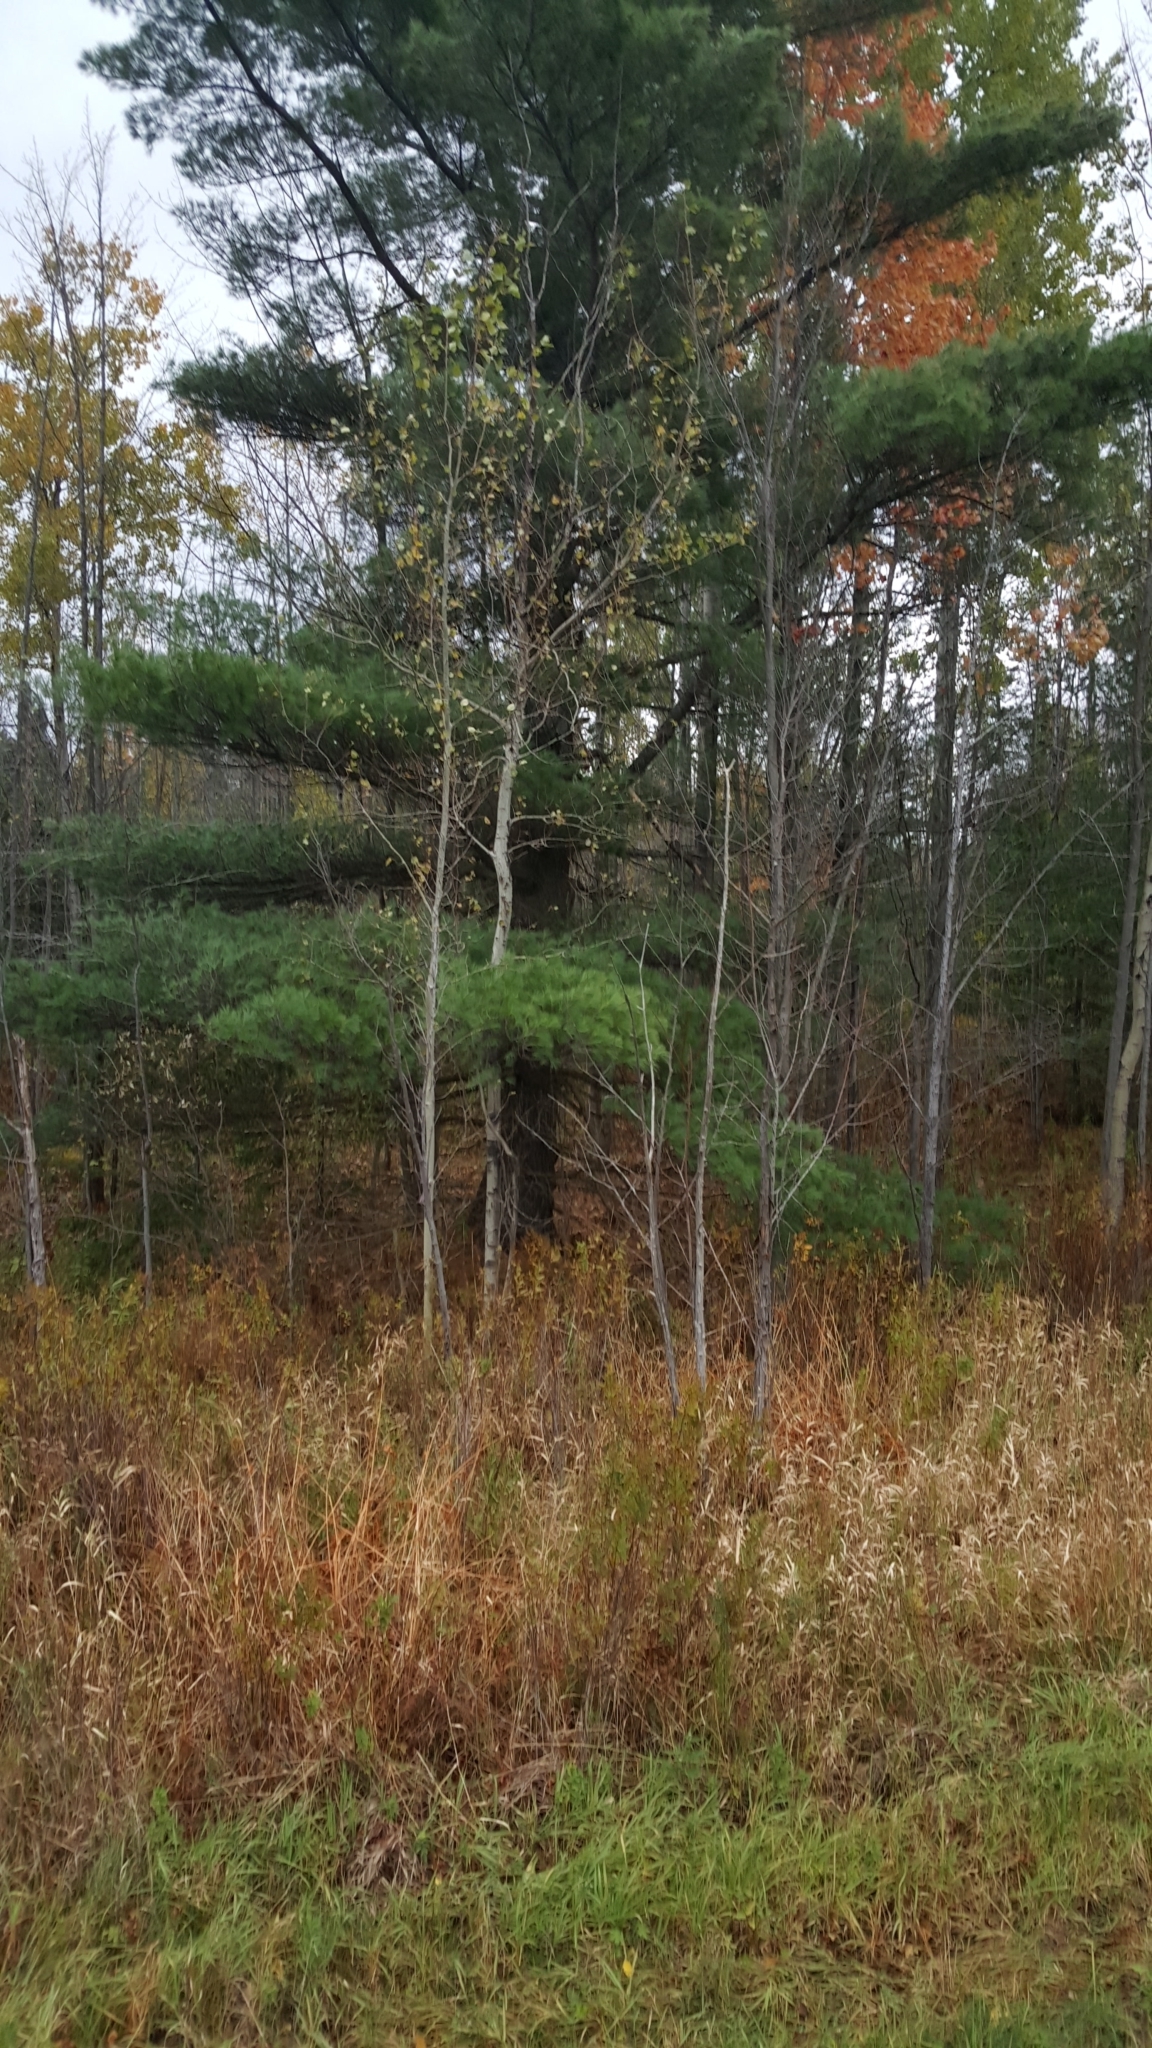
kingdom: Plantae
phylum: Tracheophyta
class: Pinopsida
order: Pinales
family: Pinaceae
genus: Pinus
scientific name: Pinus strobus
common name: Weymouth pine
